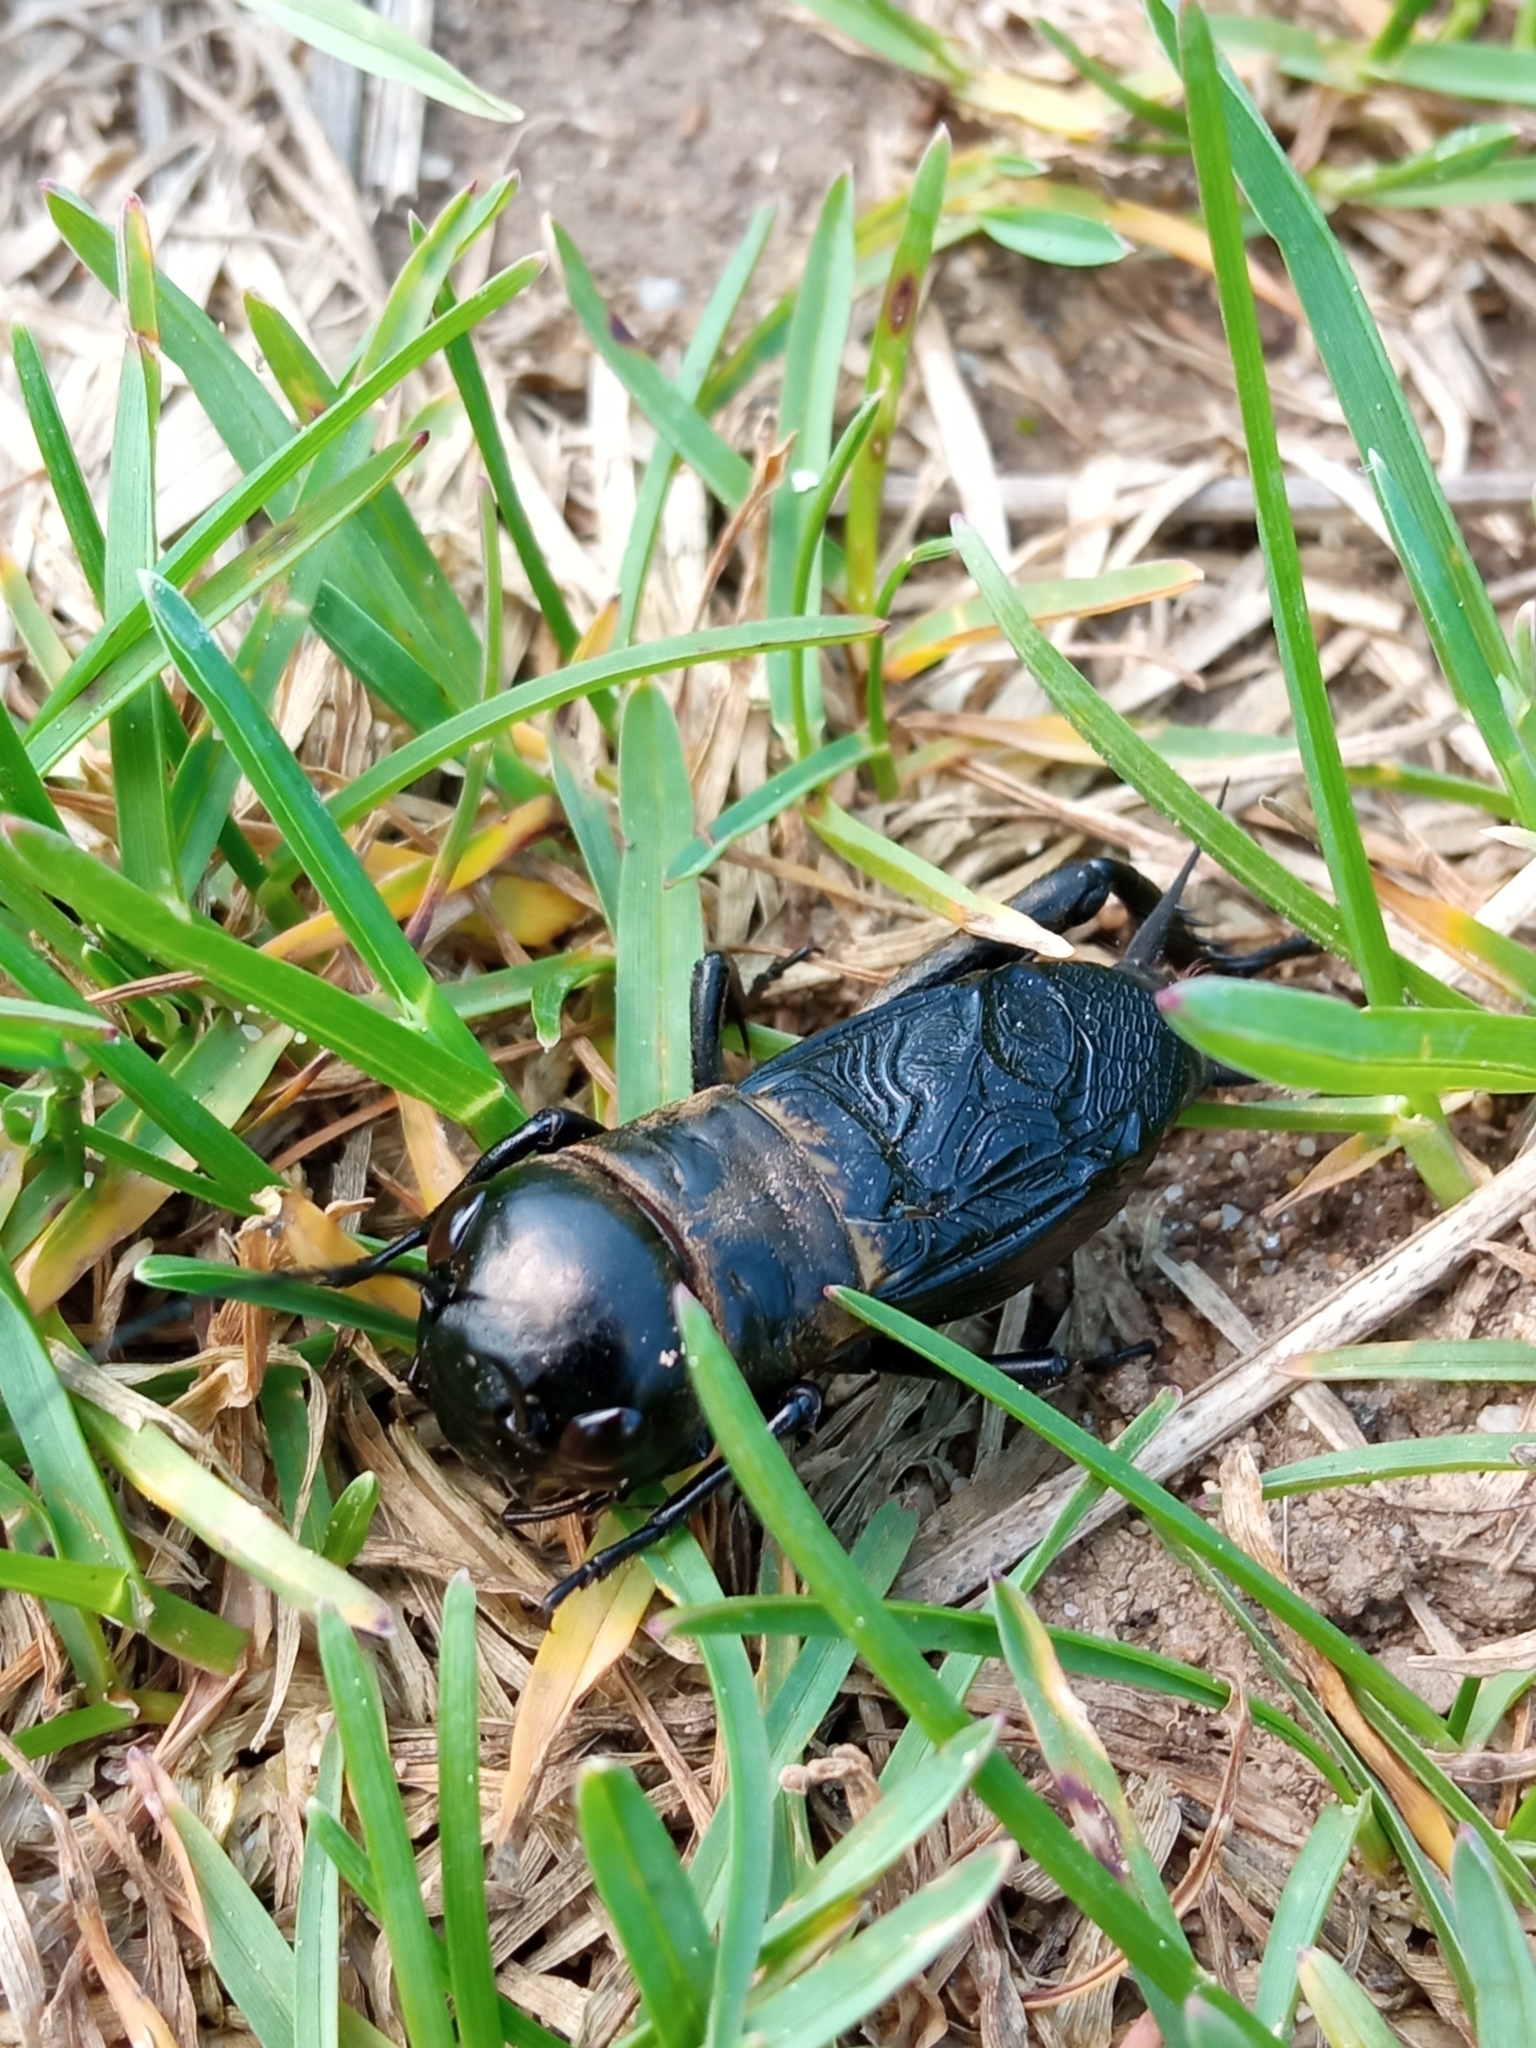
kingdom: Animalia
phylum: Arthropoda
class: Insecta
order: Orthoptera
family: Gryllidae
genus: Gryllus
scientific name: Gryllus campestris
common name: Field cricket
